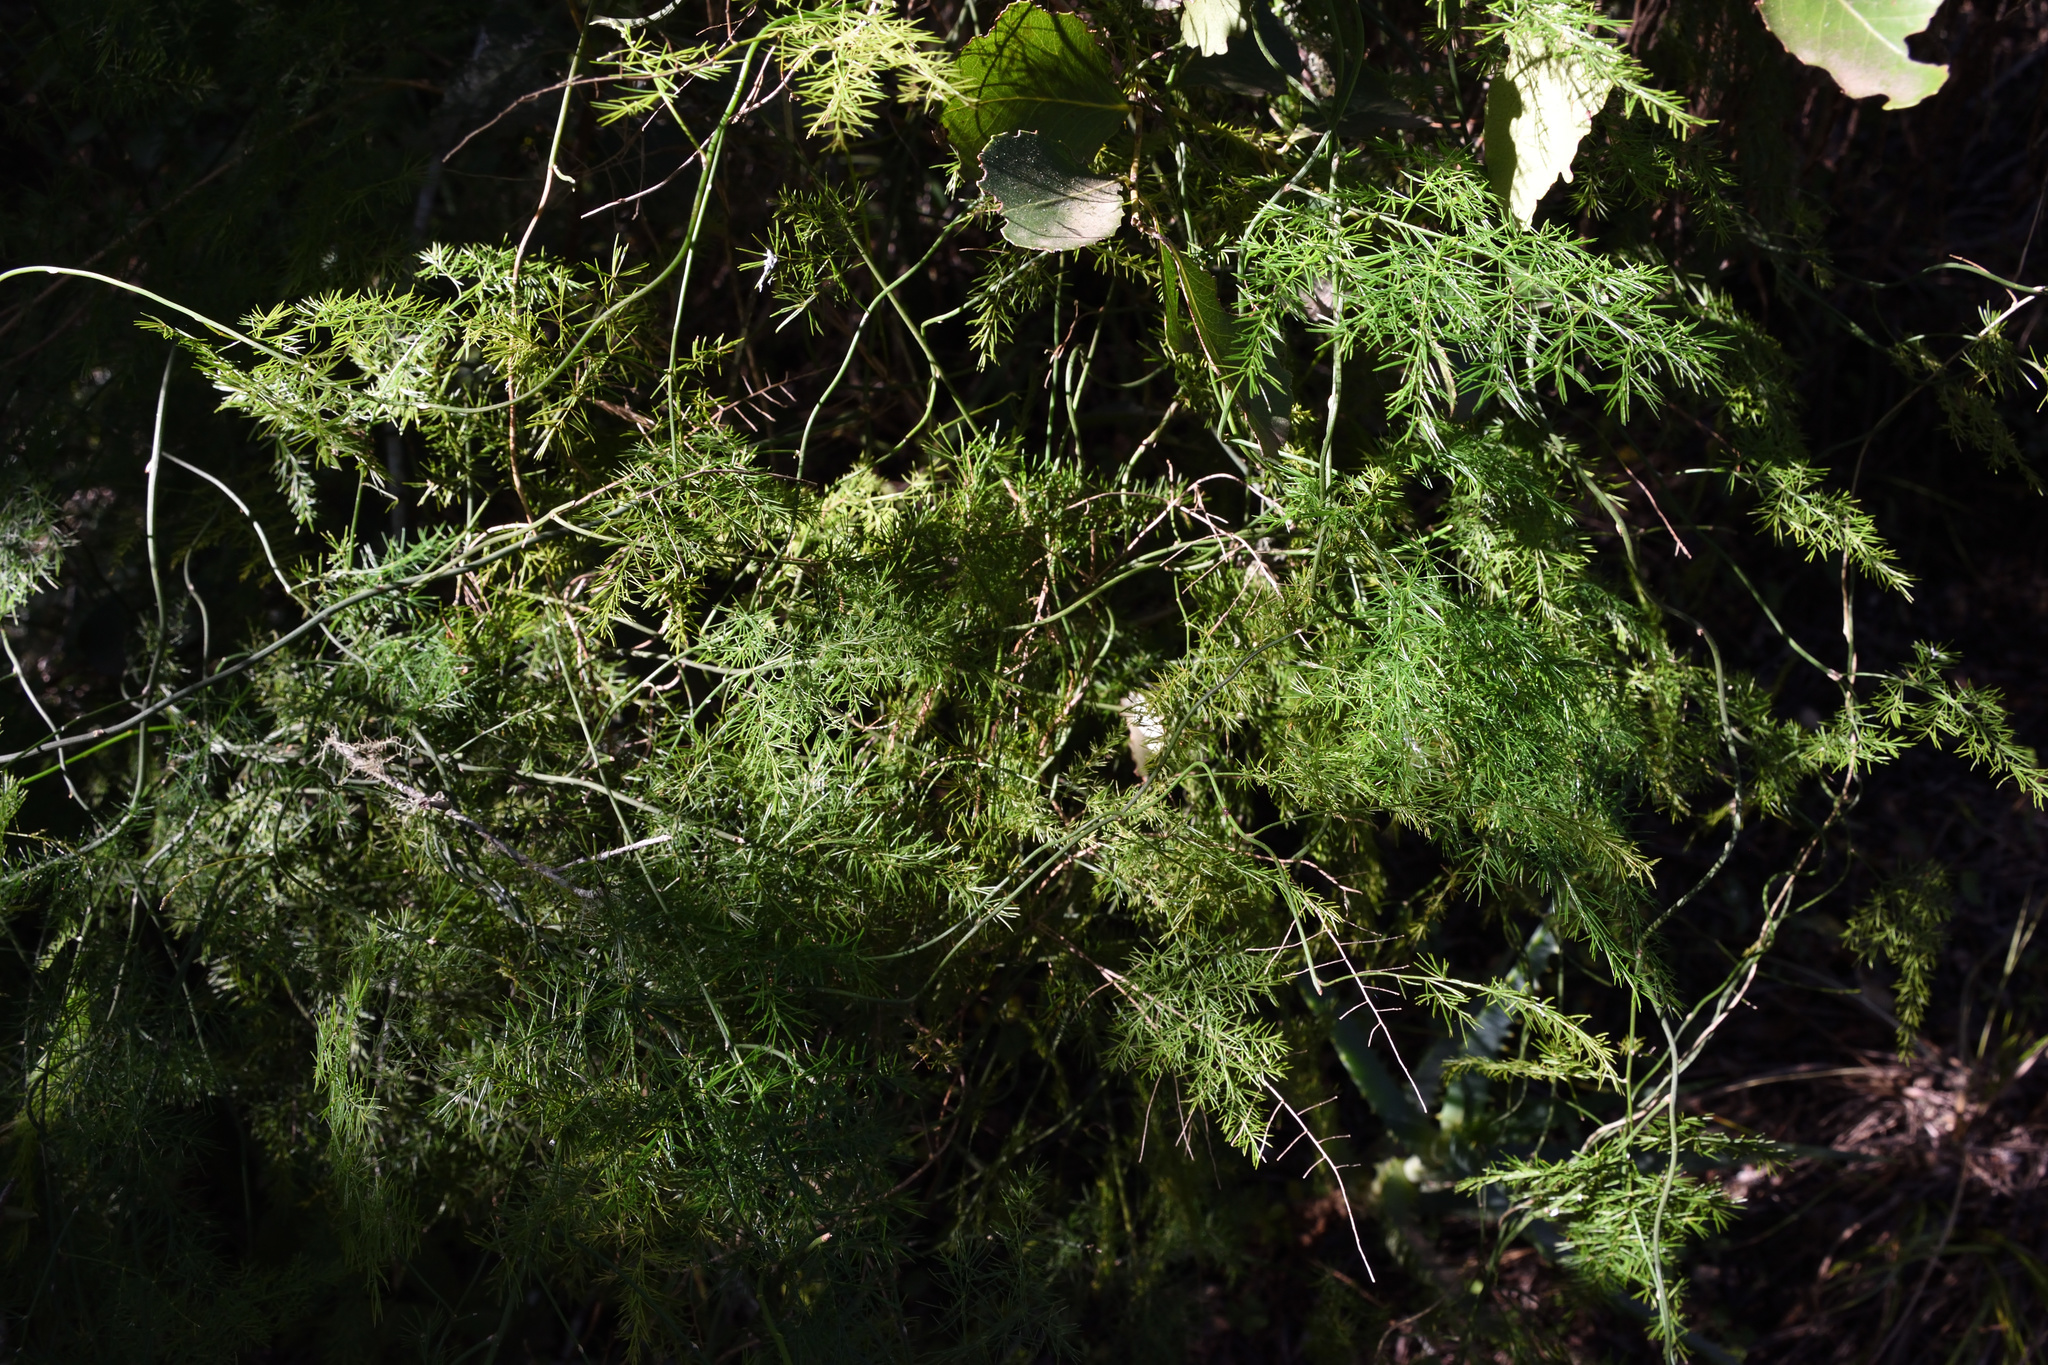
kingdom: Plantae
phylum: Tracheophyta
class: Liliopsida
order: Asparagales
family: Asparagaceae
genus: Asparagus
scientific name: Asparagus setaceus
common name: Common asparagus fern
